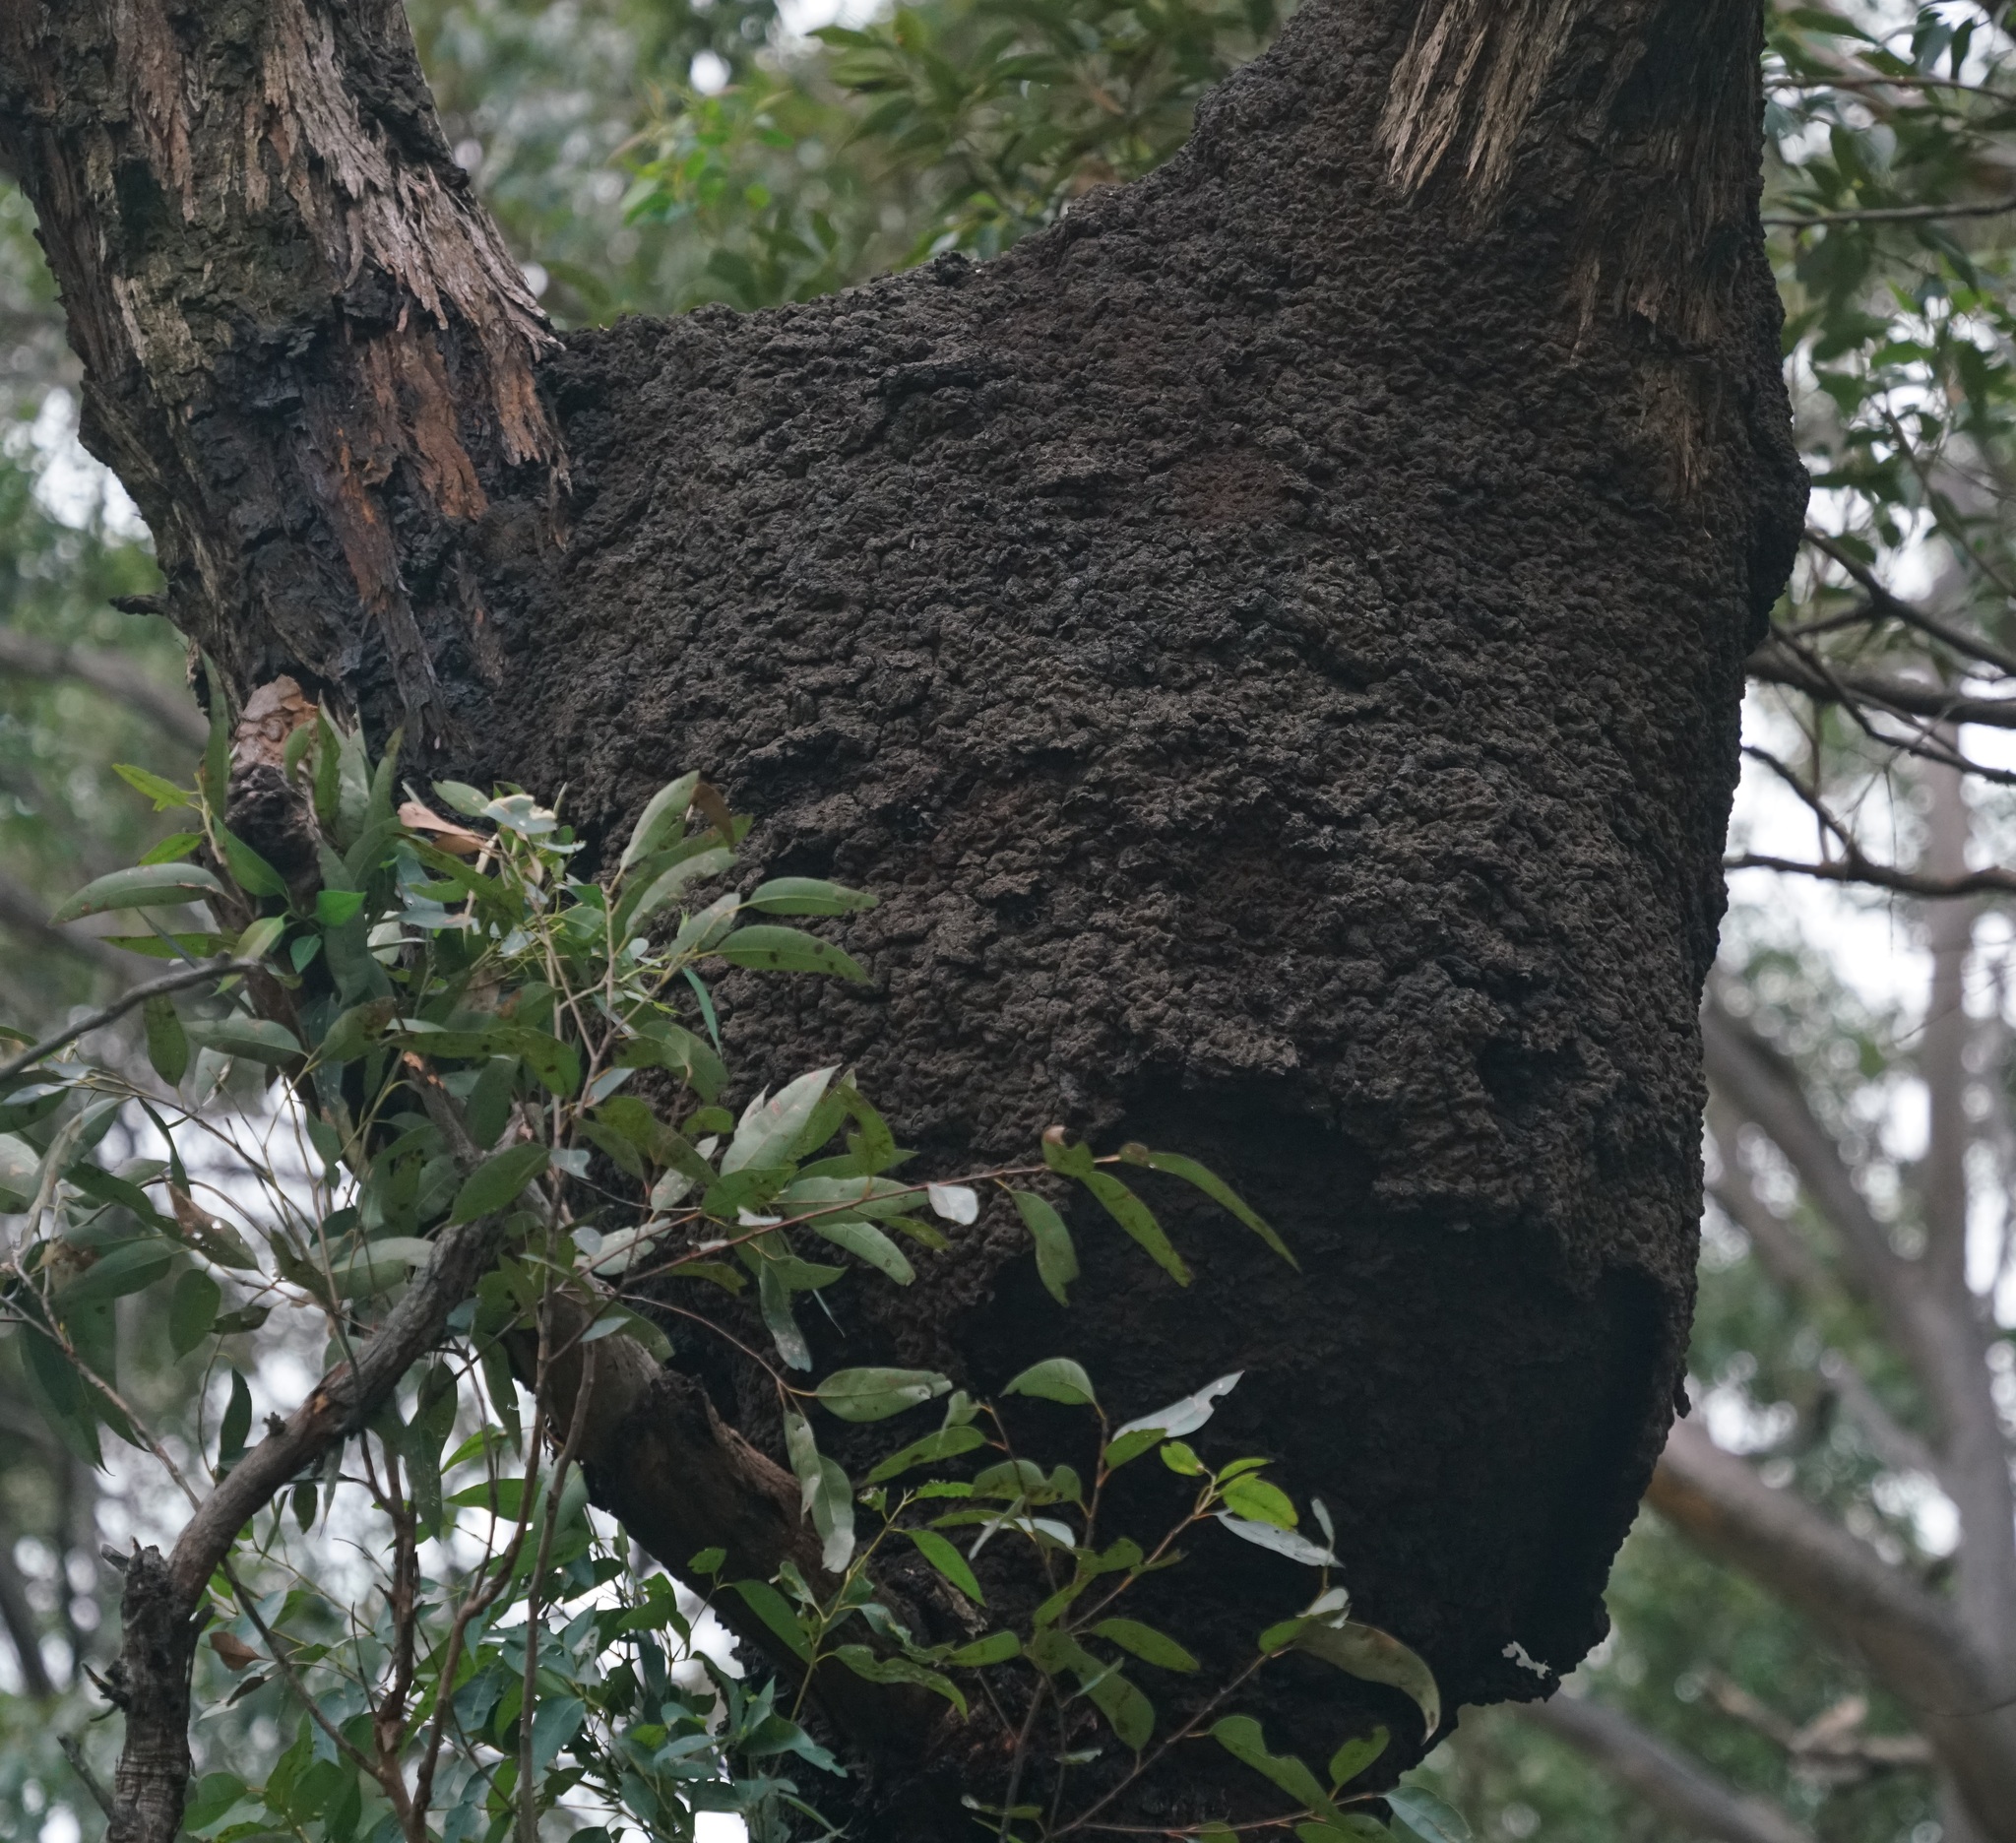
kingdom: Animalia
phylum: Arthropoda
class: Insecta
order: Blattodea
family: Termitidae
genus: Nasutitermes
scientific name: Nasutitermes walkeri
